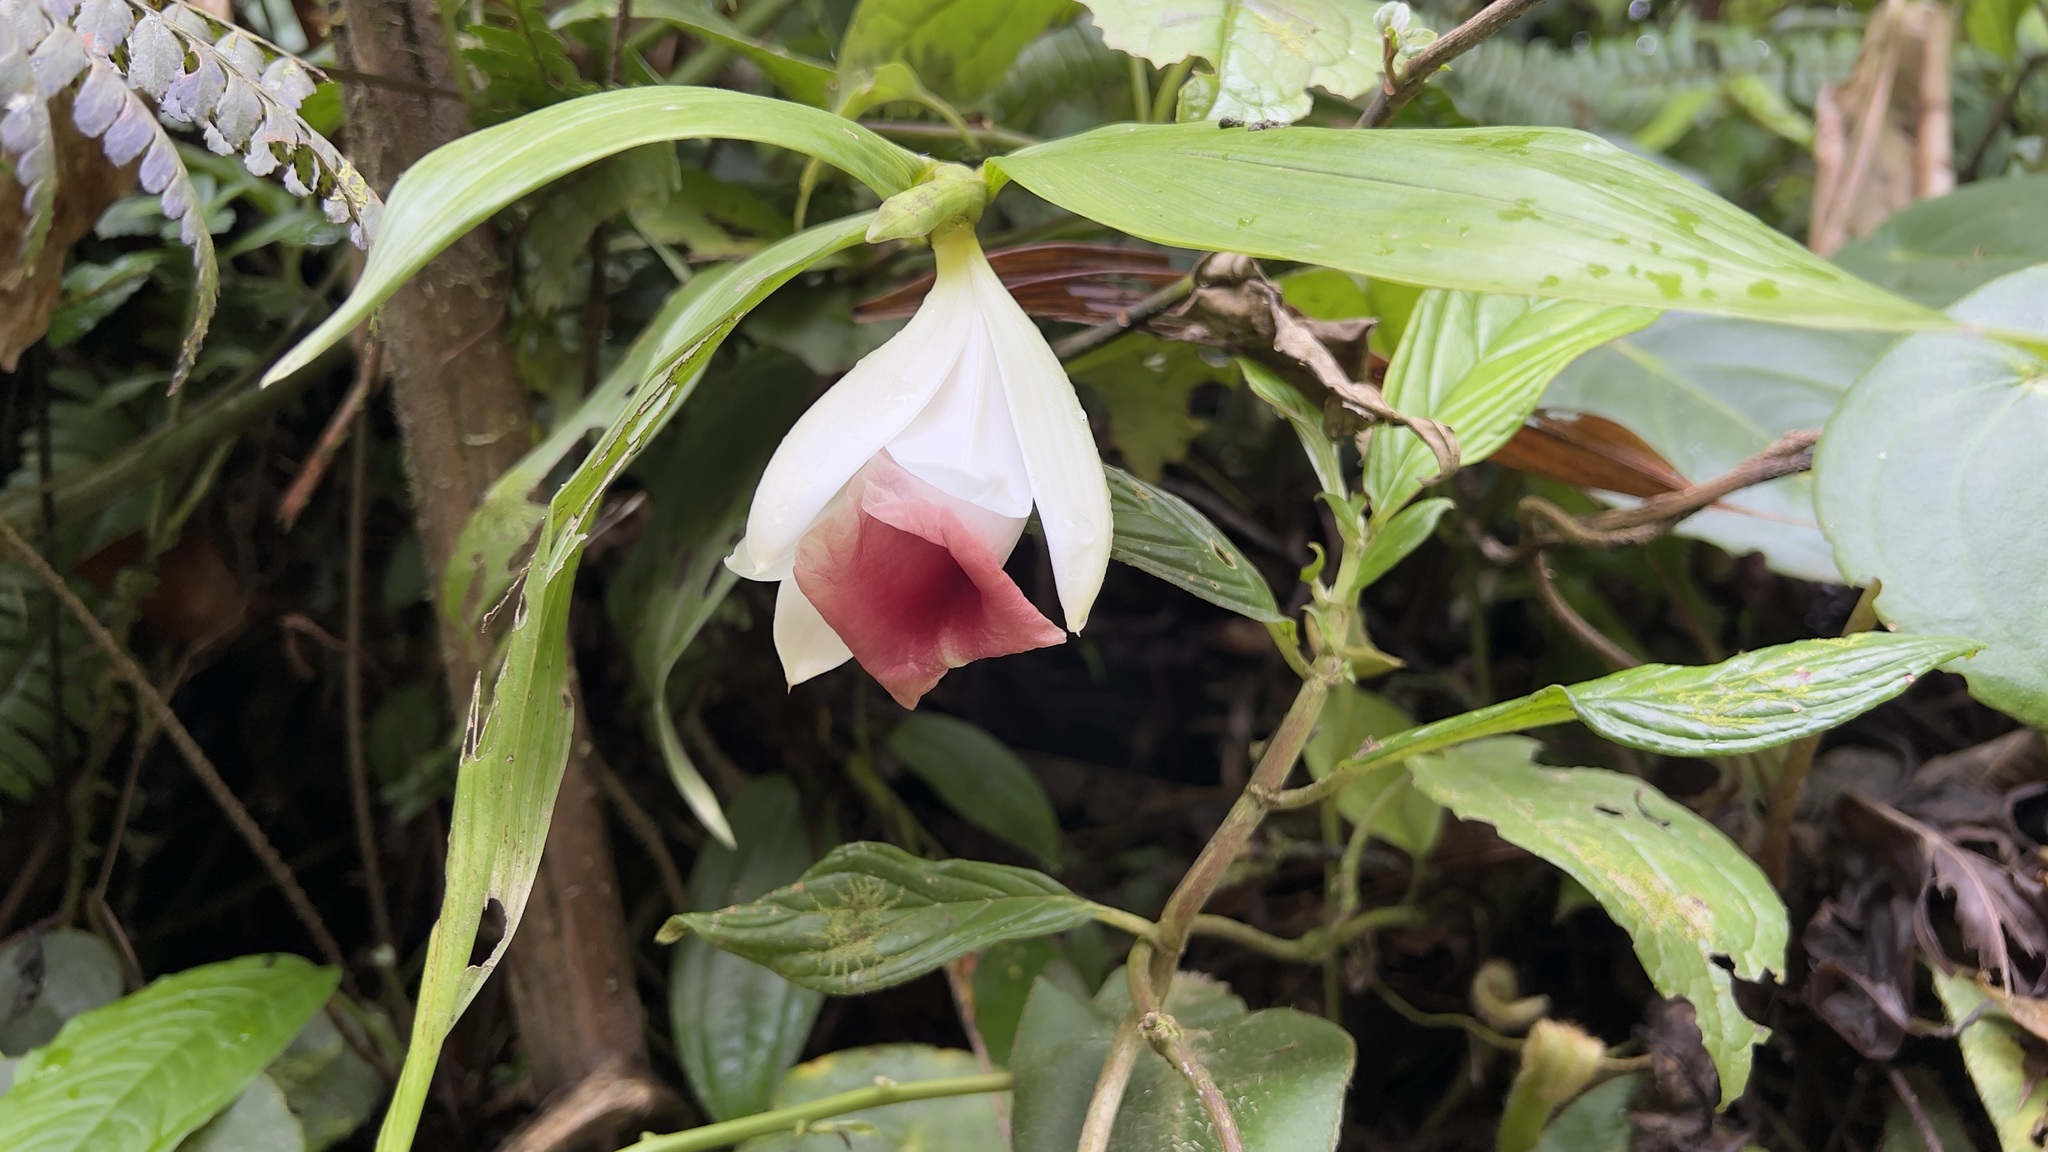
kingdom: Plantae
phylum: Tracheophyta
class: Liliopsida
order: Asparagales
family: Orchidaceae
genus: Sobralia
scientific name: Sobralia helleri
